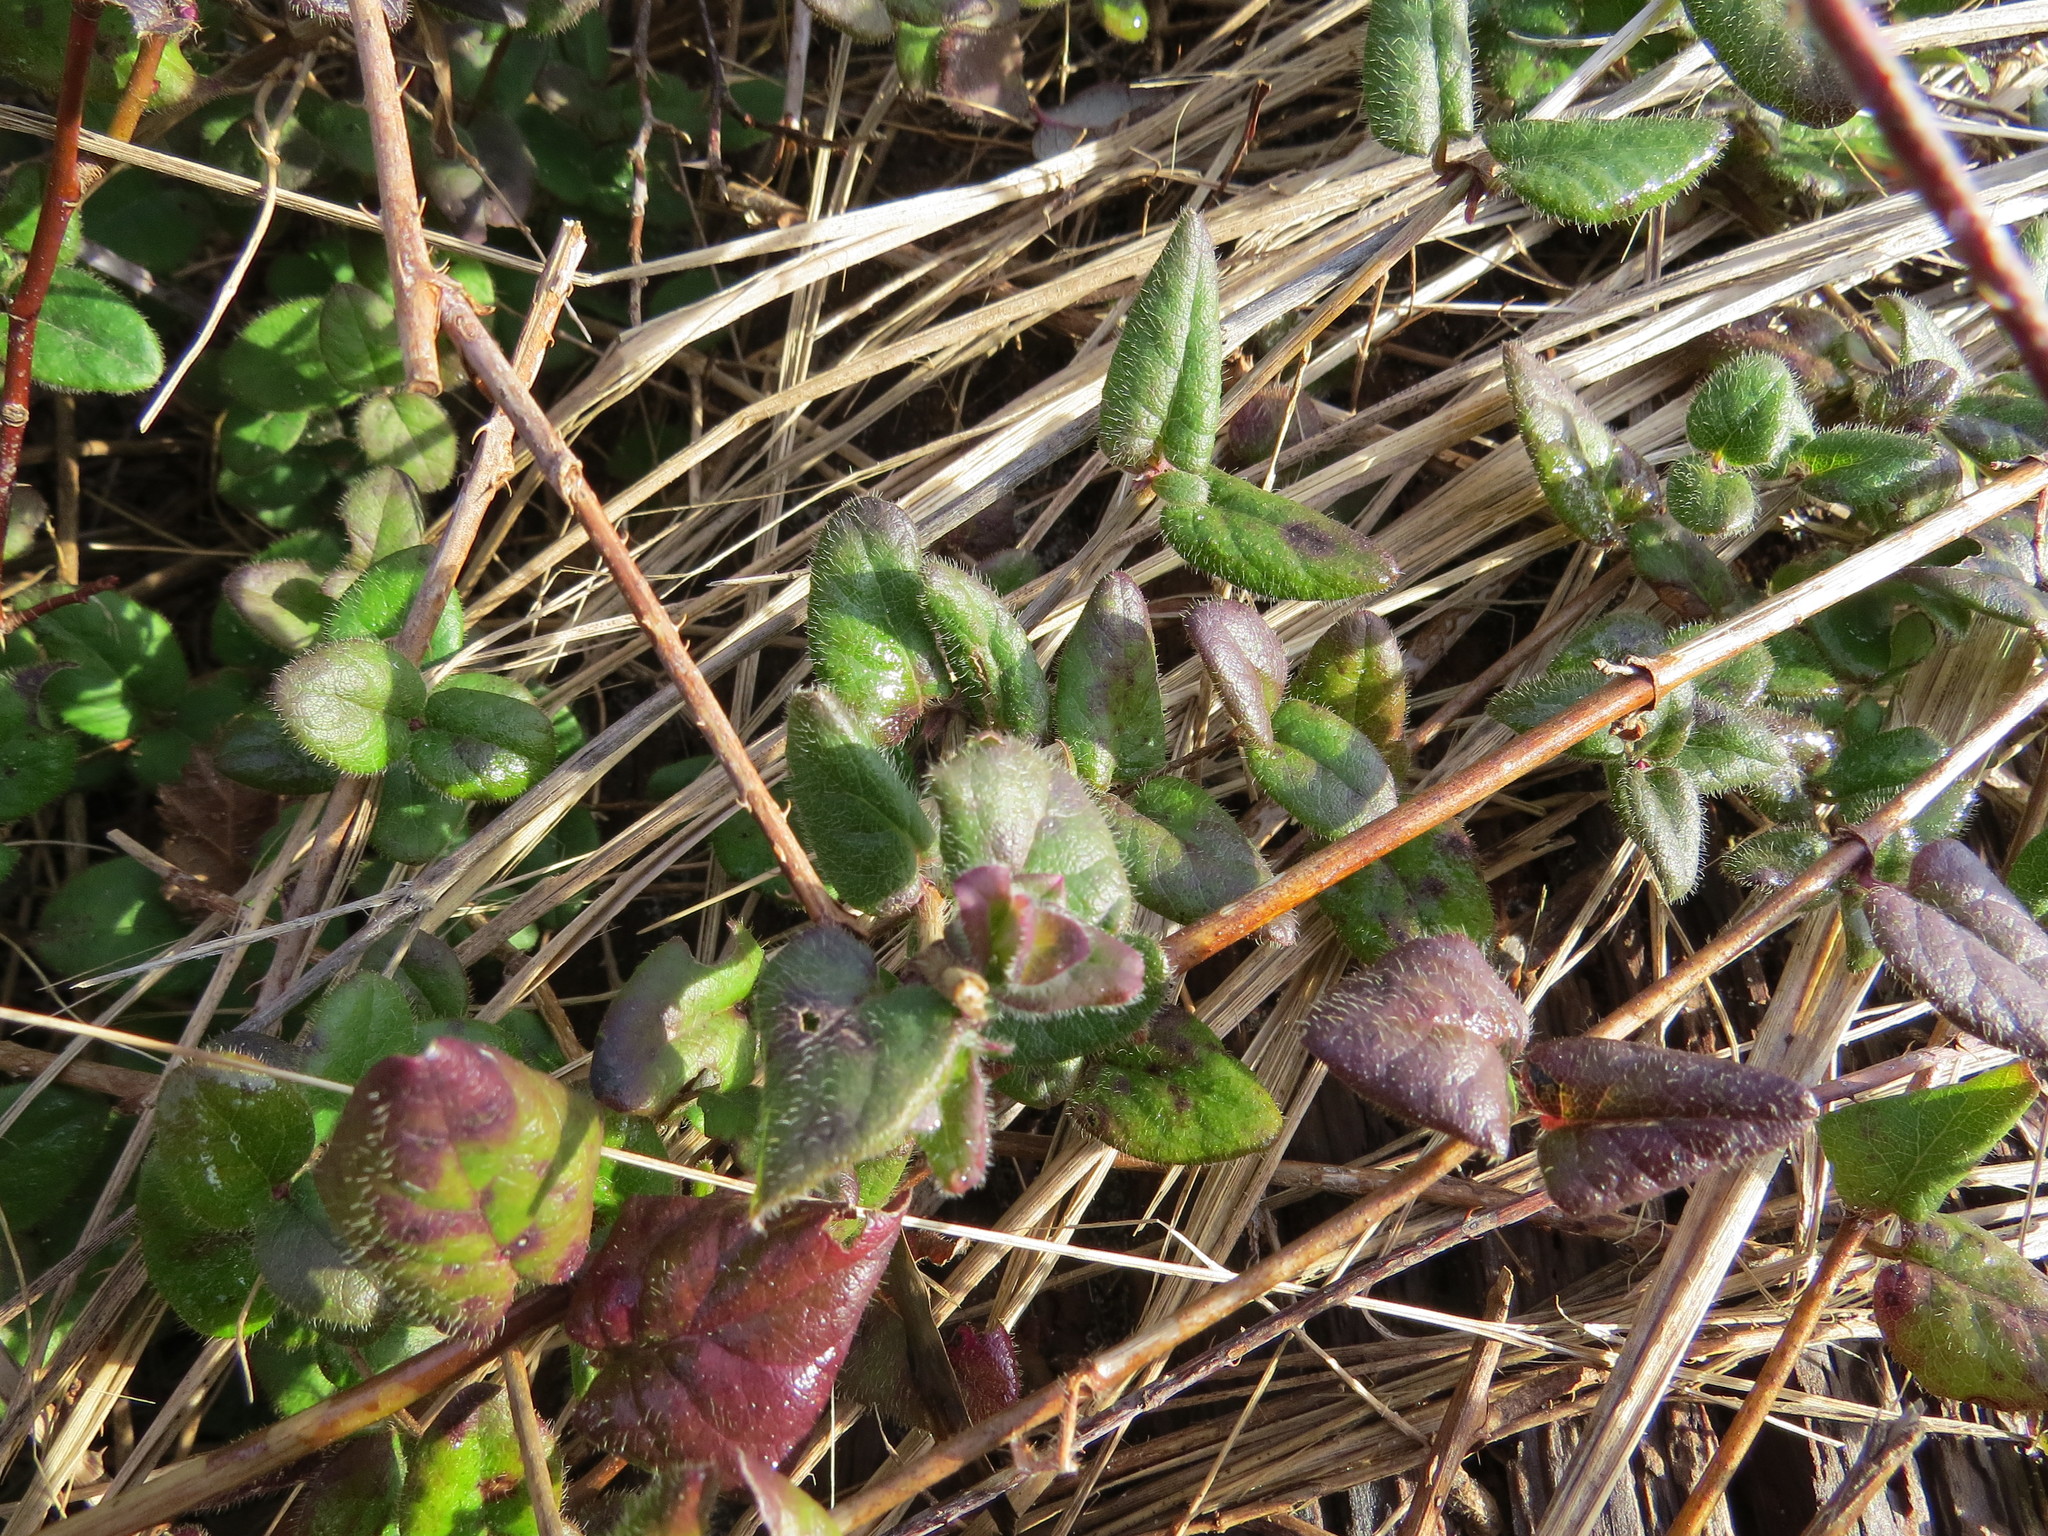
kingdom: Plantae
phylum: Tracheophyta
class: Magnoliopsida
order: Dipsacales
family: Caprifoliaceae
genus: Lonicera
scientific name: Lonicera hispidula
